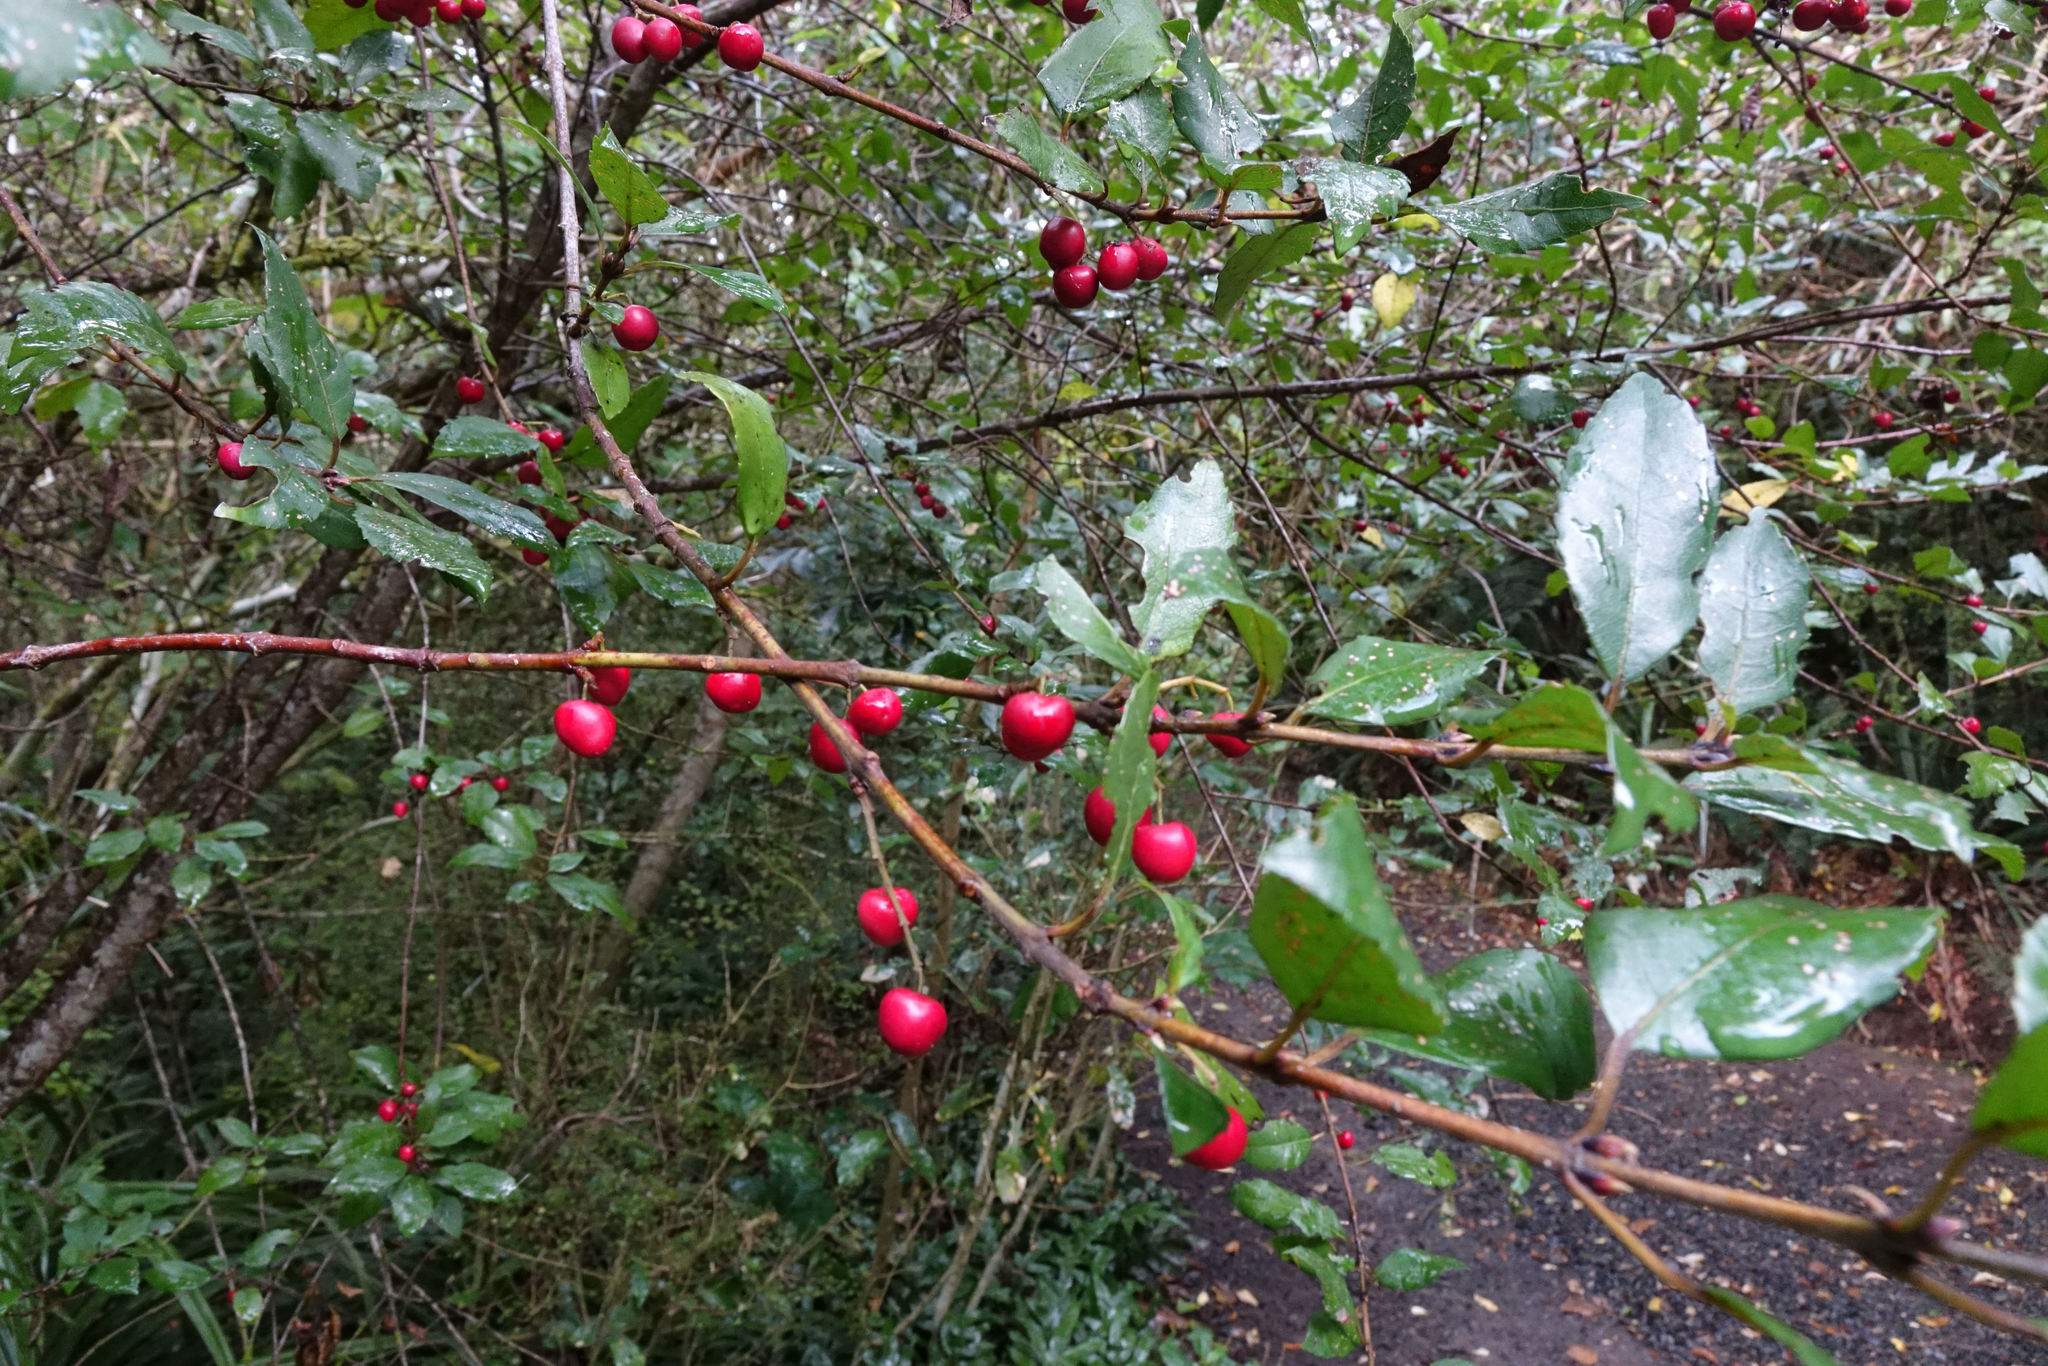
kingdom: Plantae
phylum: Tracheophyta
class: Magnoliopsida
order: Oxalidales
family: Elaeocarpaceae
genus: Aristotelia
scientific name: Aristotelia
